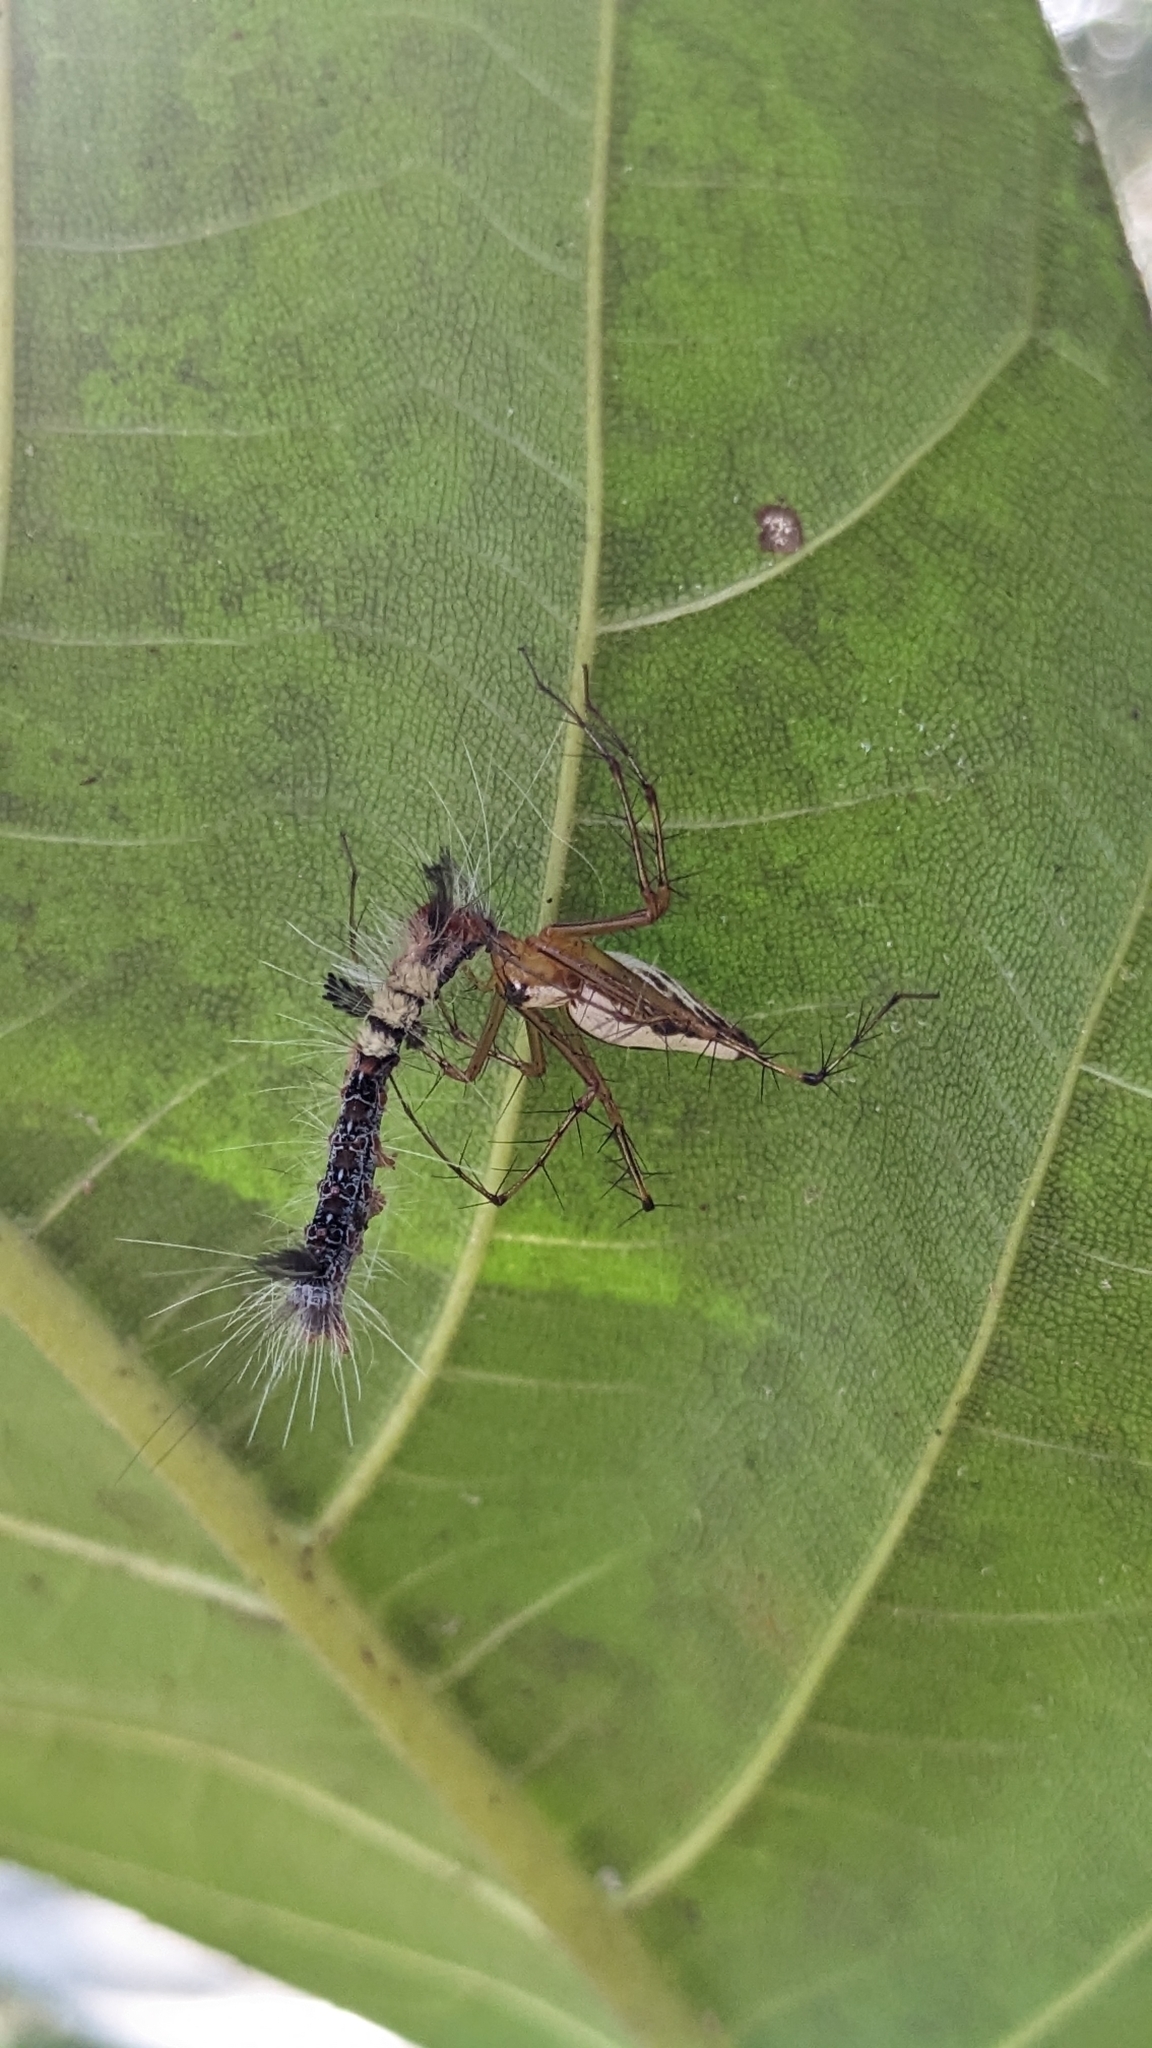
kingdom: Animalia
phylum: Arthropoda
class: Arachnida
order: Araneae
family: Oxyopidae
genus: Oxyopes
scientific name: Oxyopes shweta
